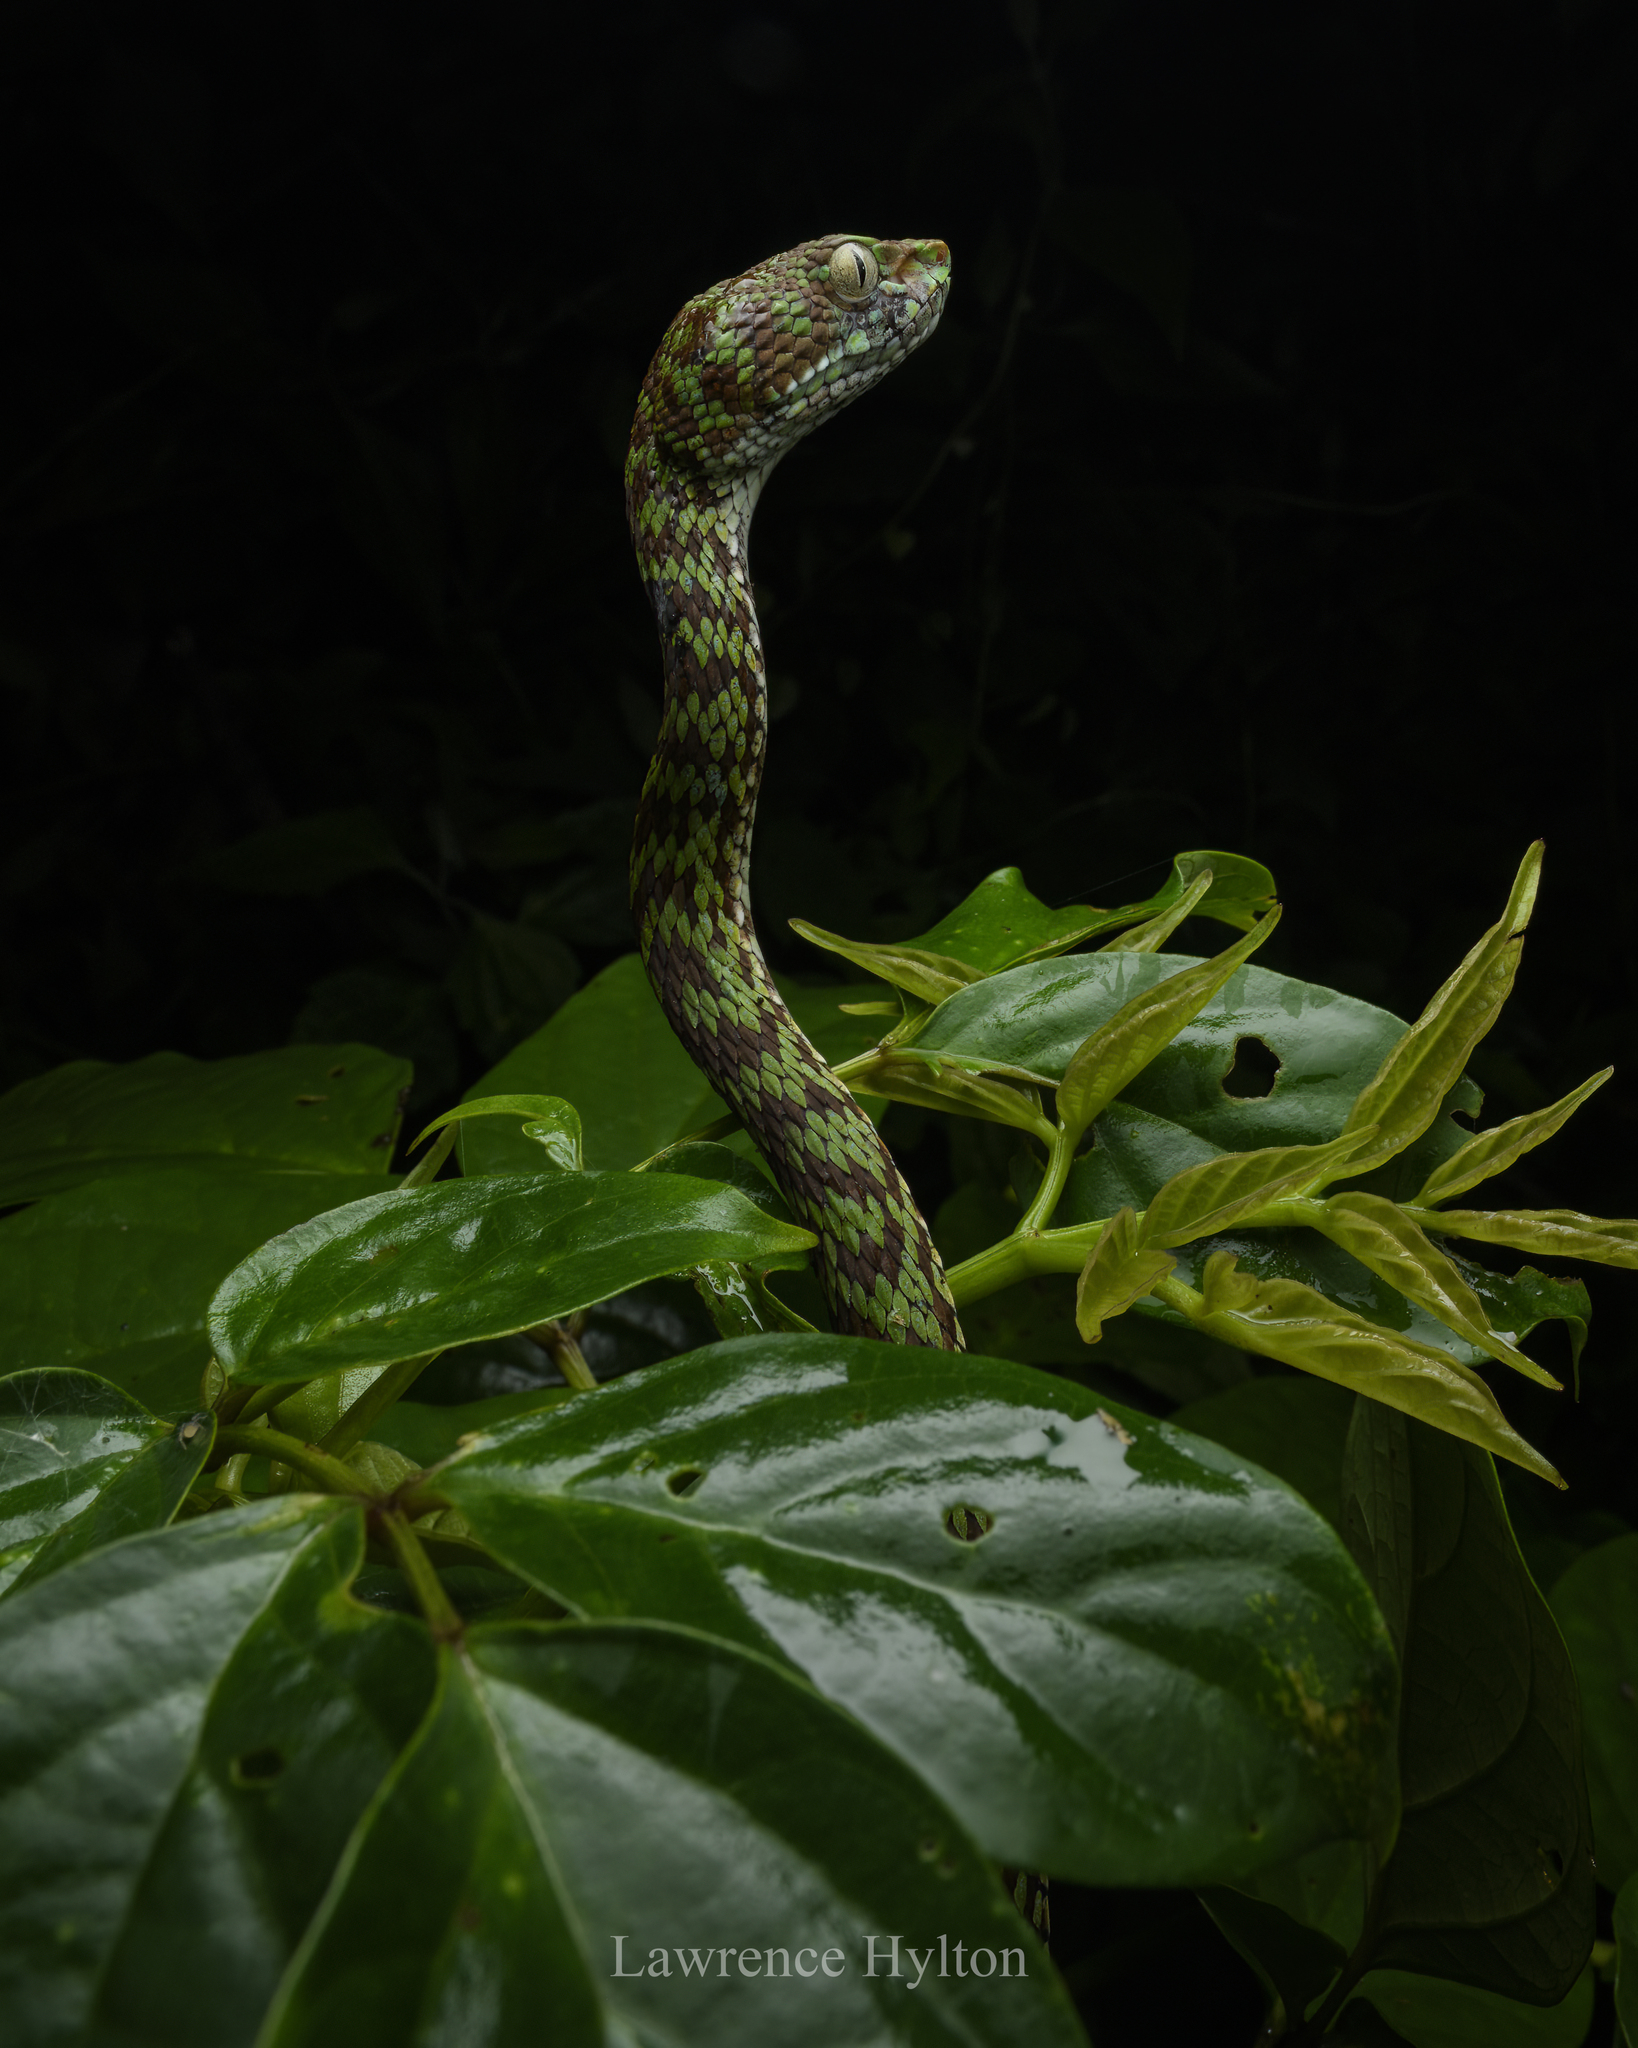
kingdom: Animalia
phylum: Chordata
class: Squamata
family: Viperidae
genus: Trimeresurus
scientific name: Trimeresurus venustus
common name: Brown-spotted pit viper
